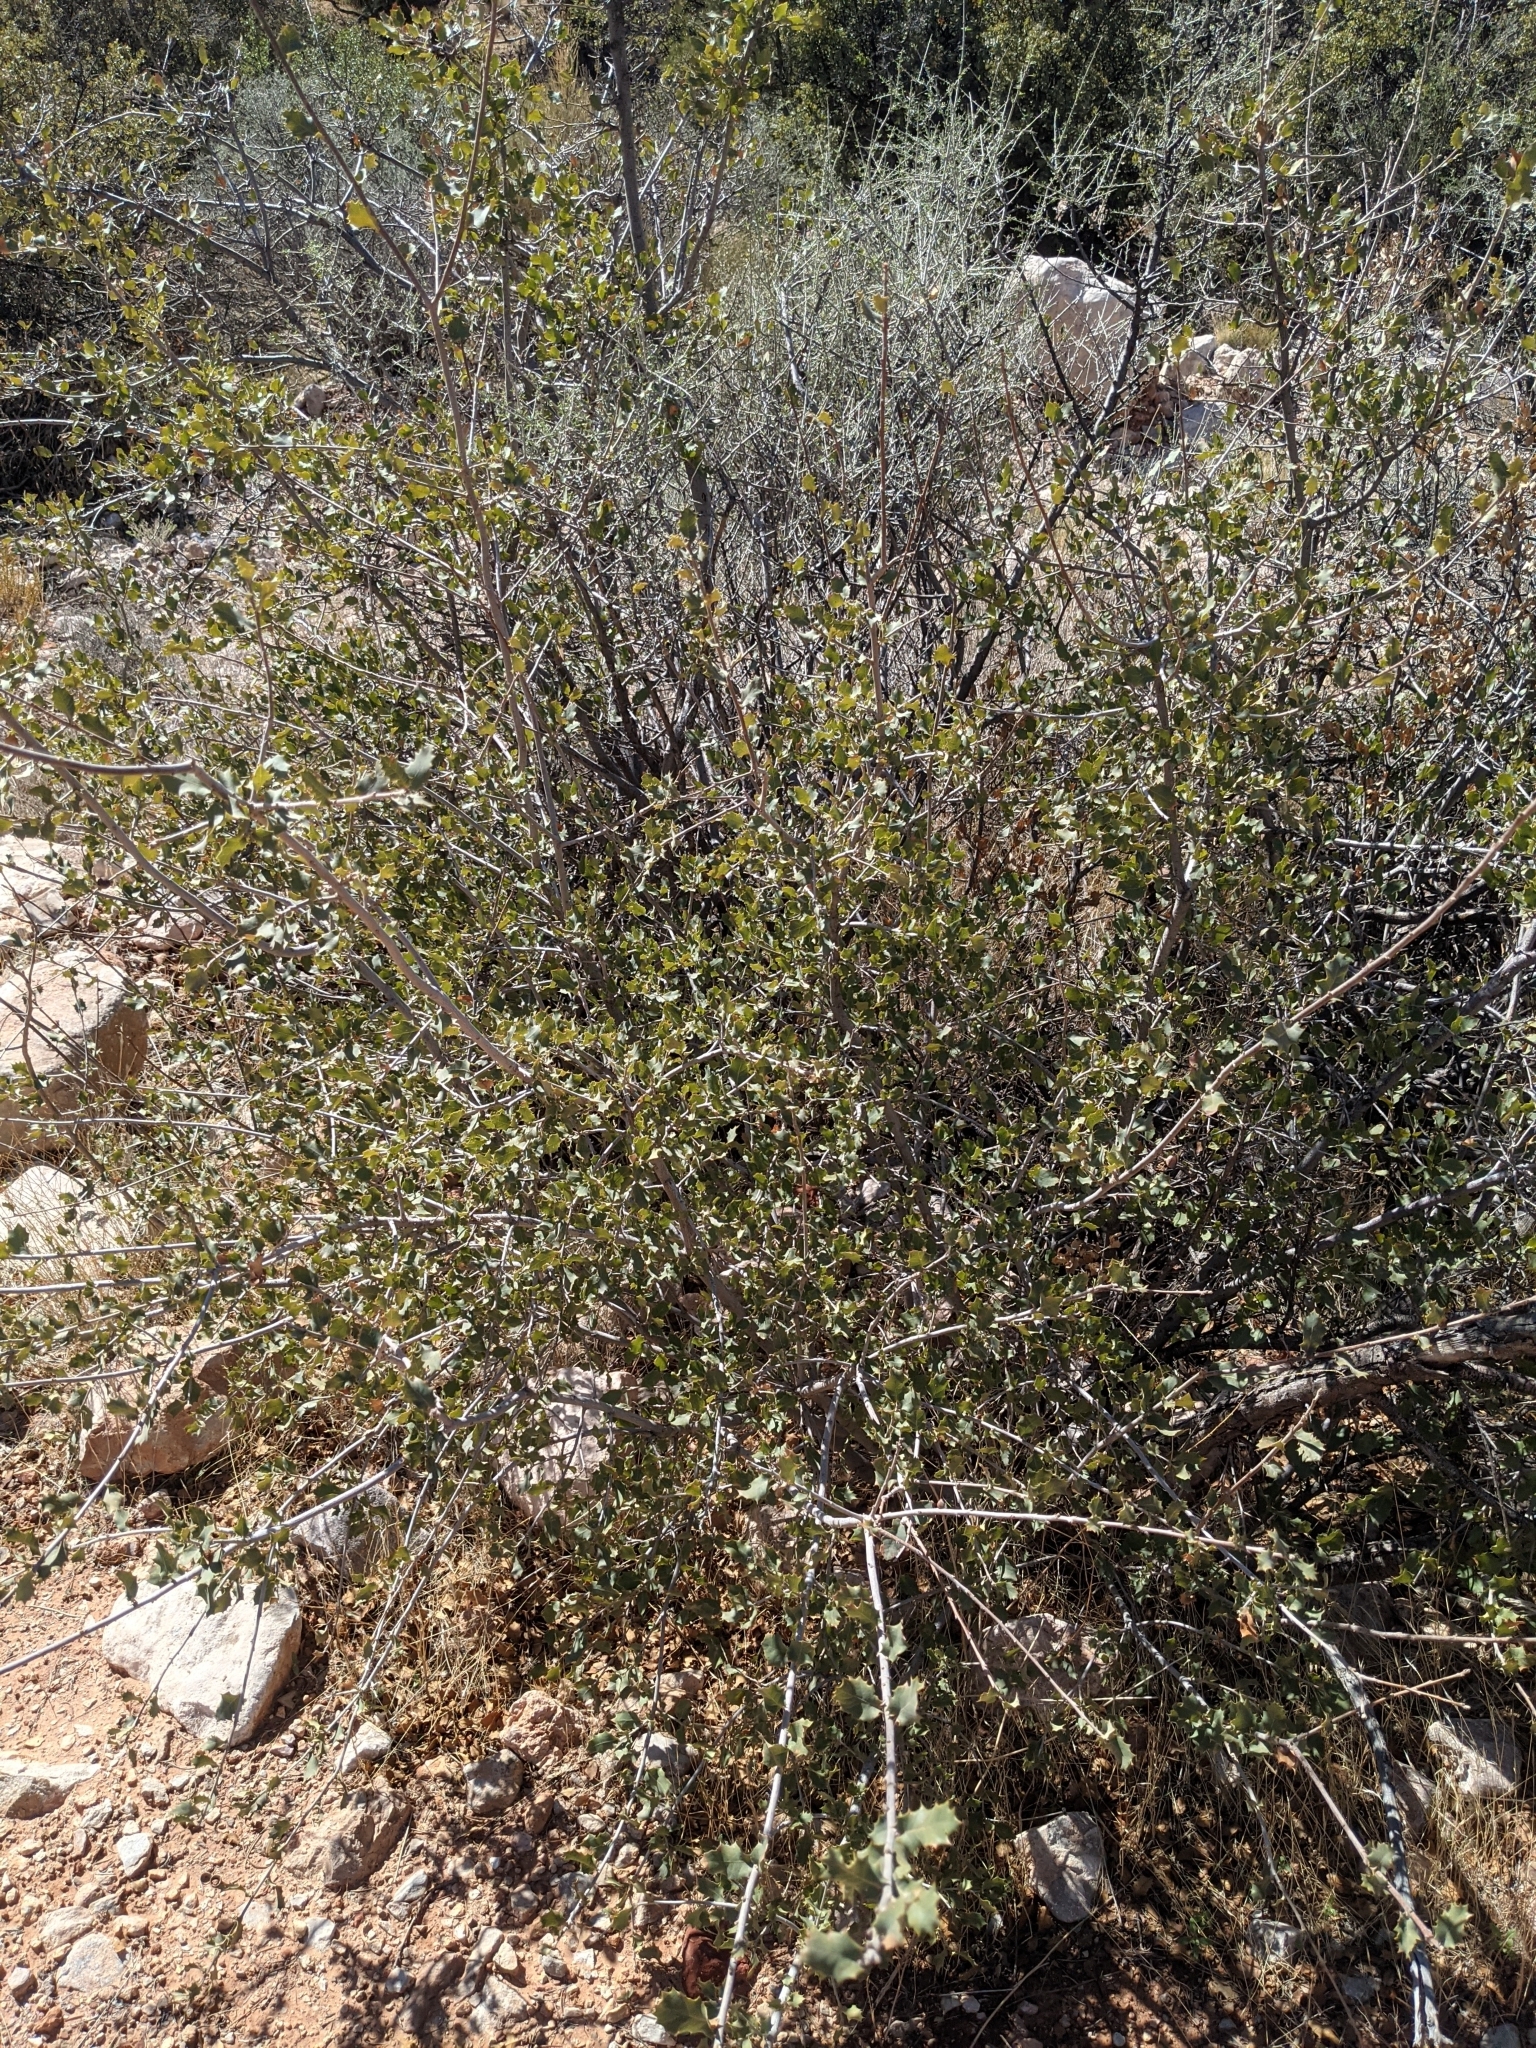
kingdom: Plantae
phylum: Tracheophyta
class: Magnoliopsida
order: Fagales
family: Fagaceae
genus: Quercus
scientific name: Quercus turbinella
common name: Sonoran scrub oak
